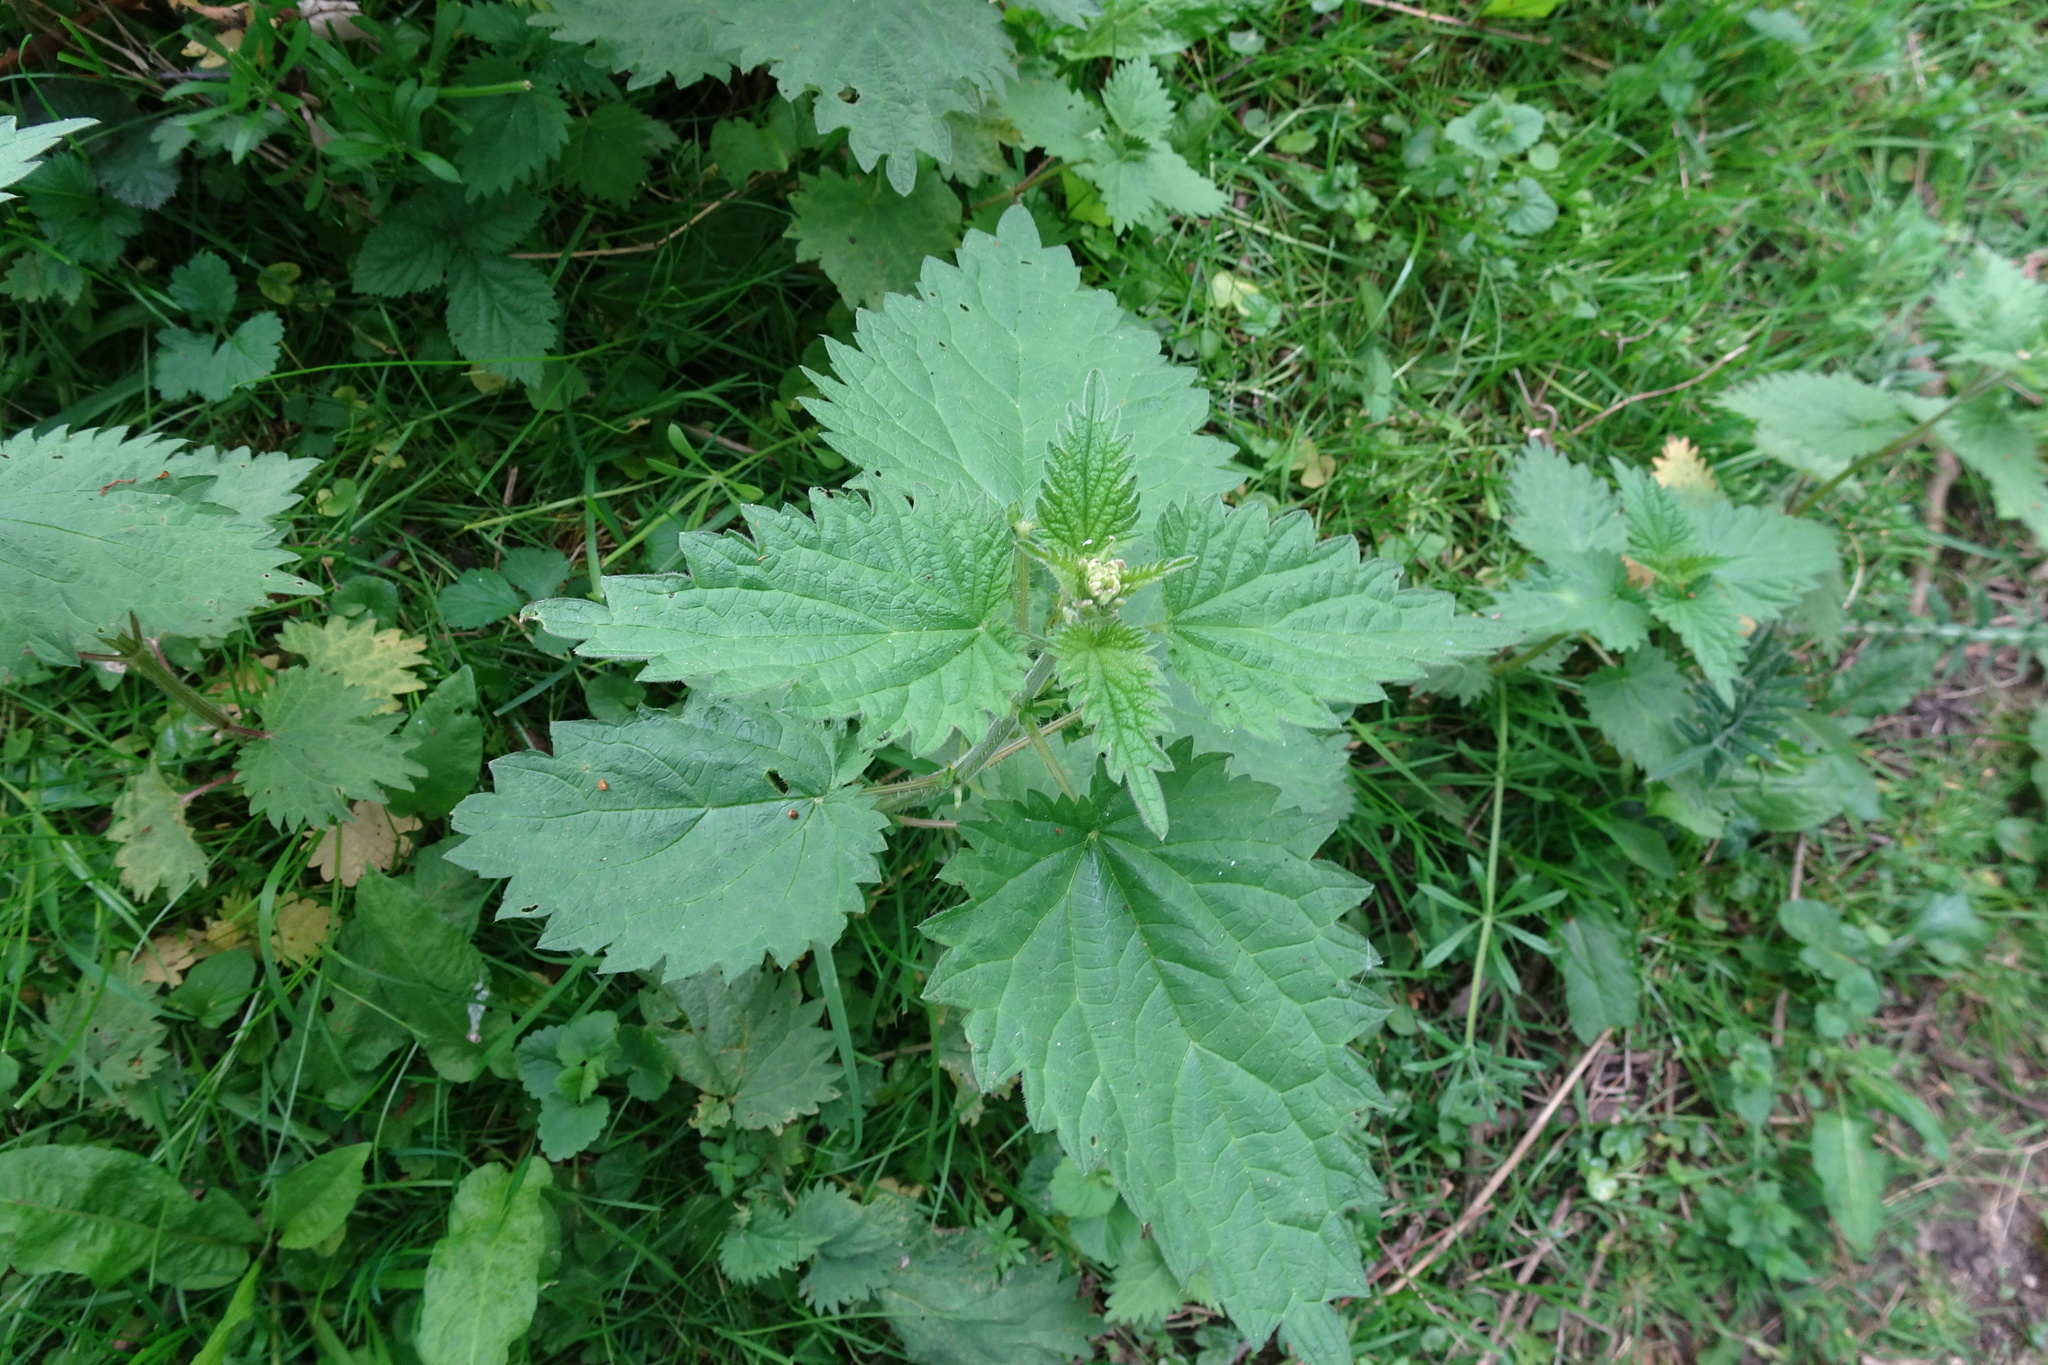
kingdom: Plantae
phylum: Tracheophyta
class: Magnoliopsida
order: Rosales
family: Urticaceae
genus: Urtica
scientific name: Urtica dioica
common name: Common nettle
